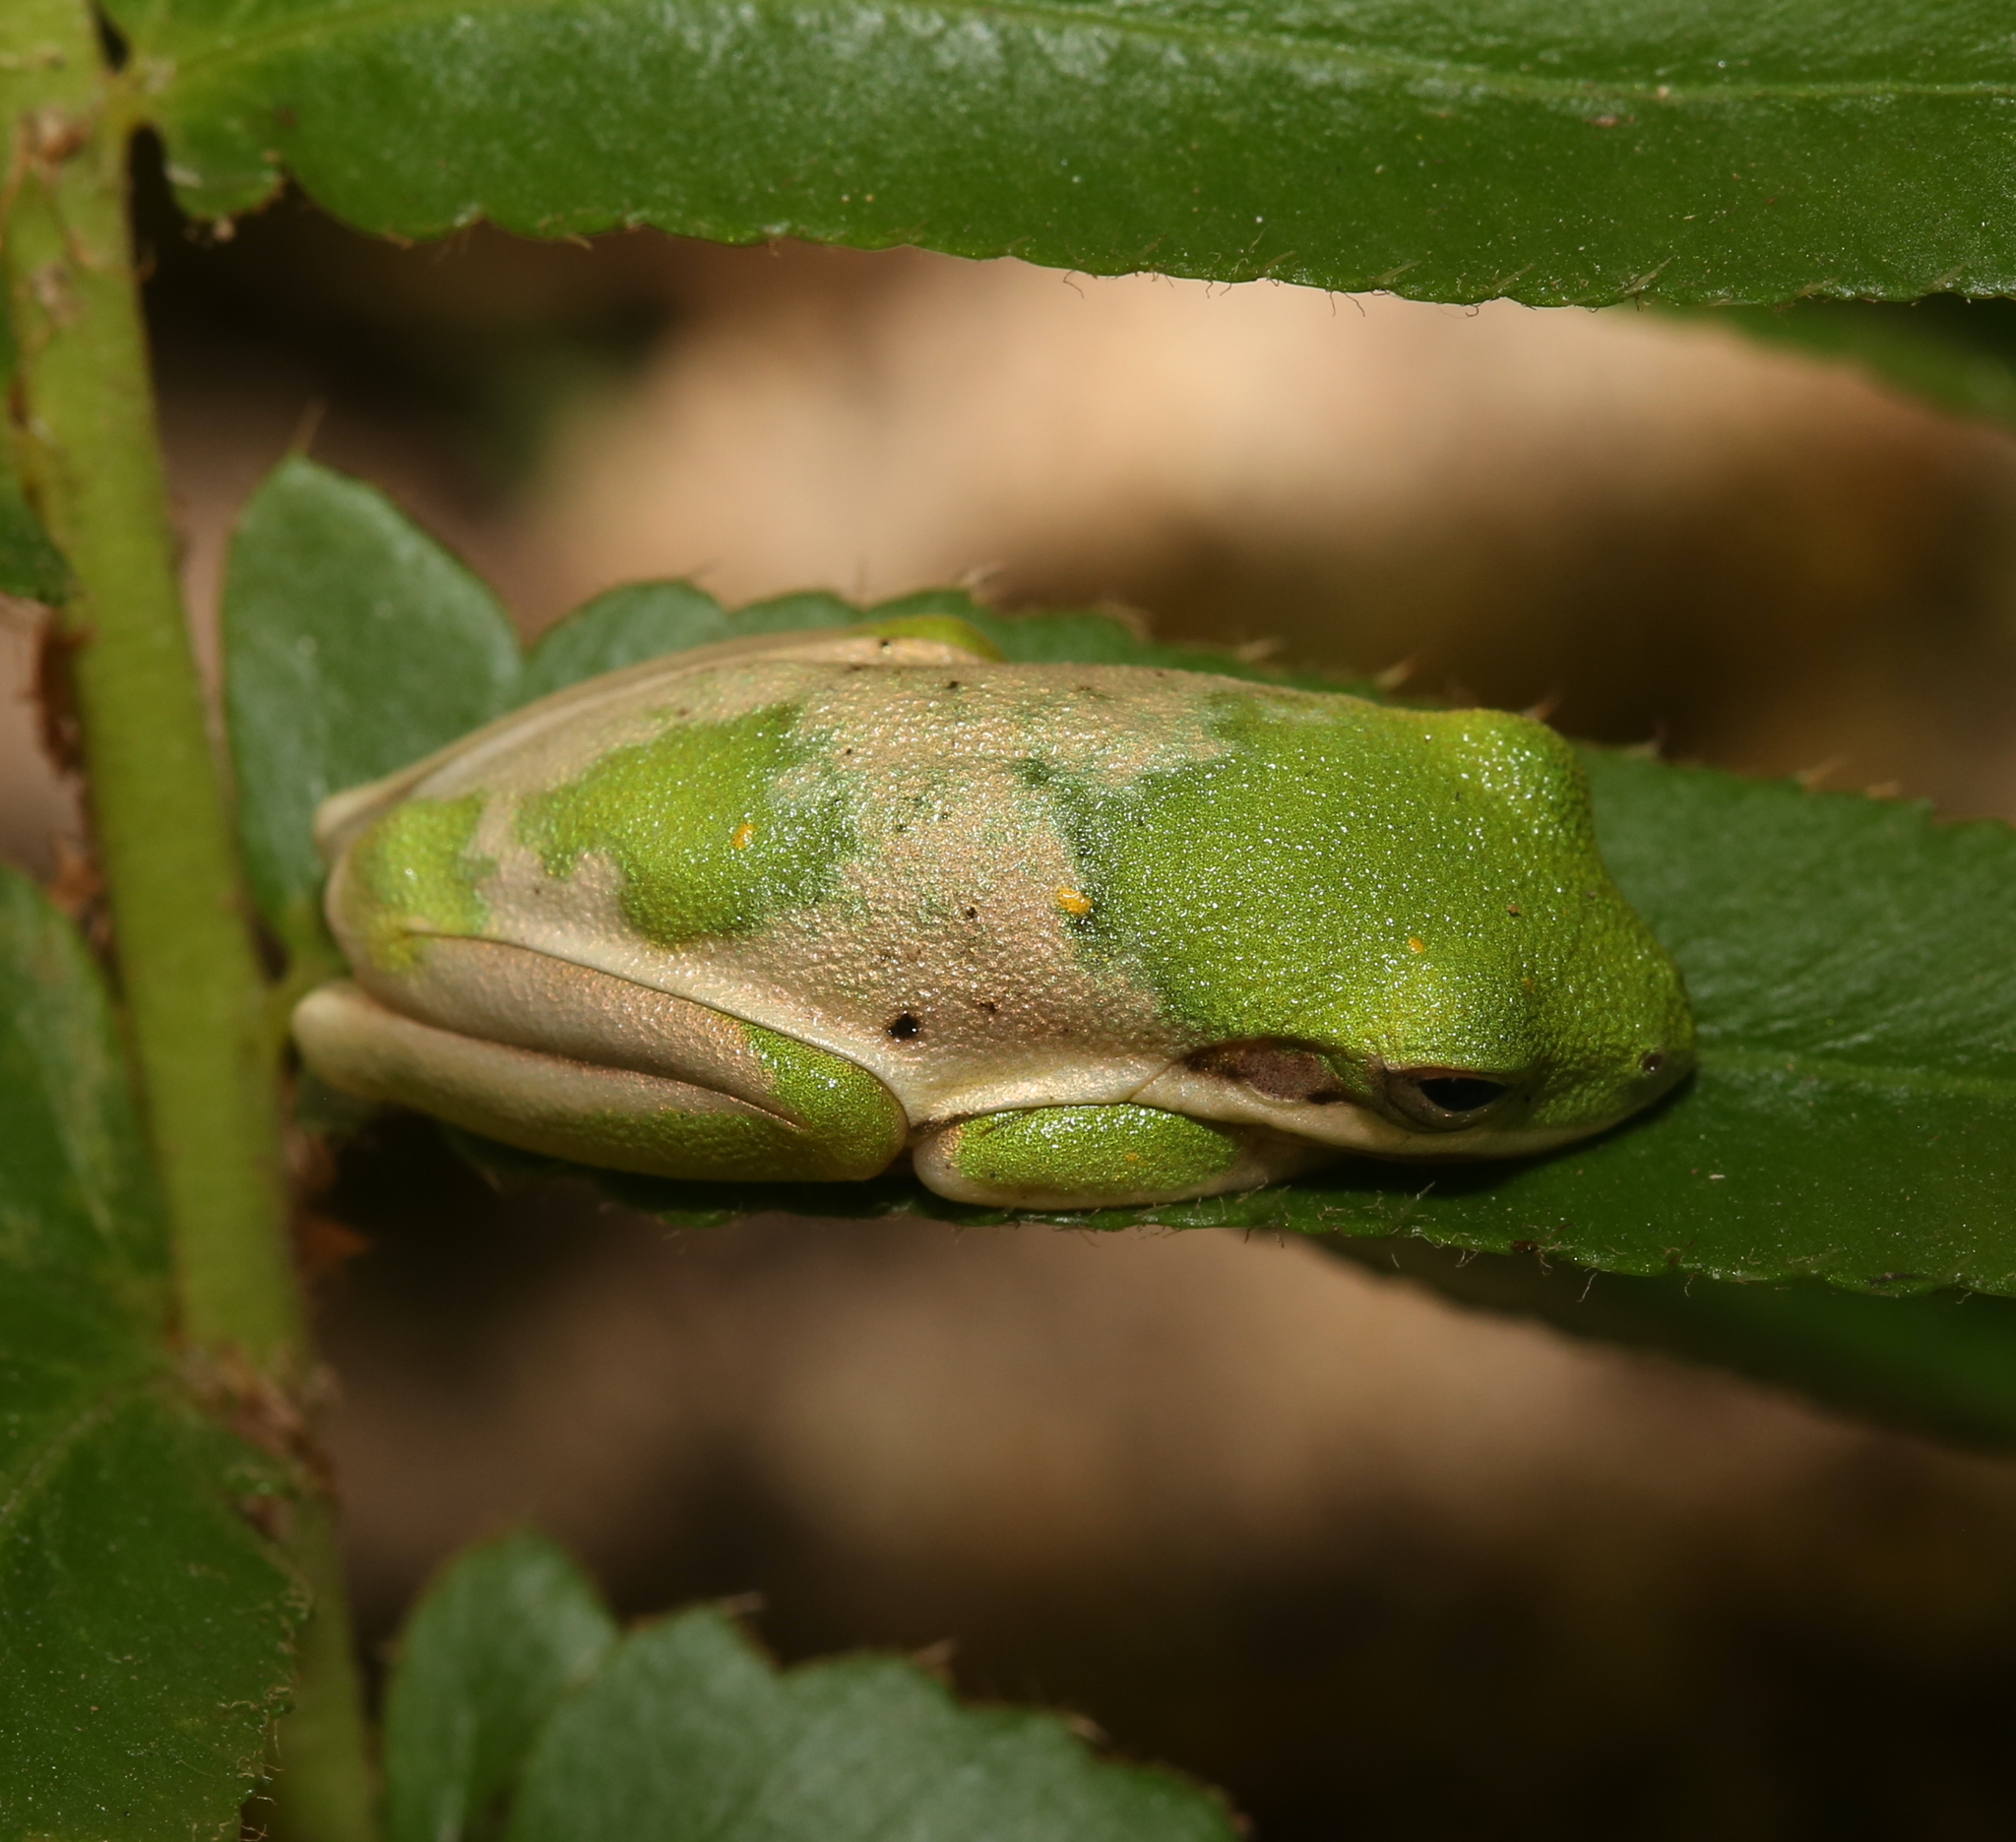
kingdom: Animalia
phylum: Chordata
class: Amphibia
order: Anura
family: Hylidae
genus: Dryophytes
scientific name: Dryophytes cinereus
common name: Green treefrog
